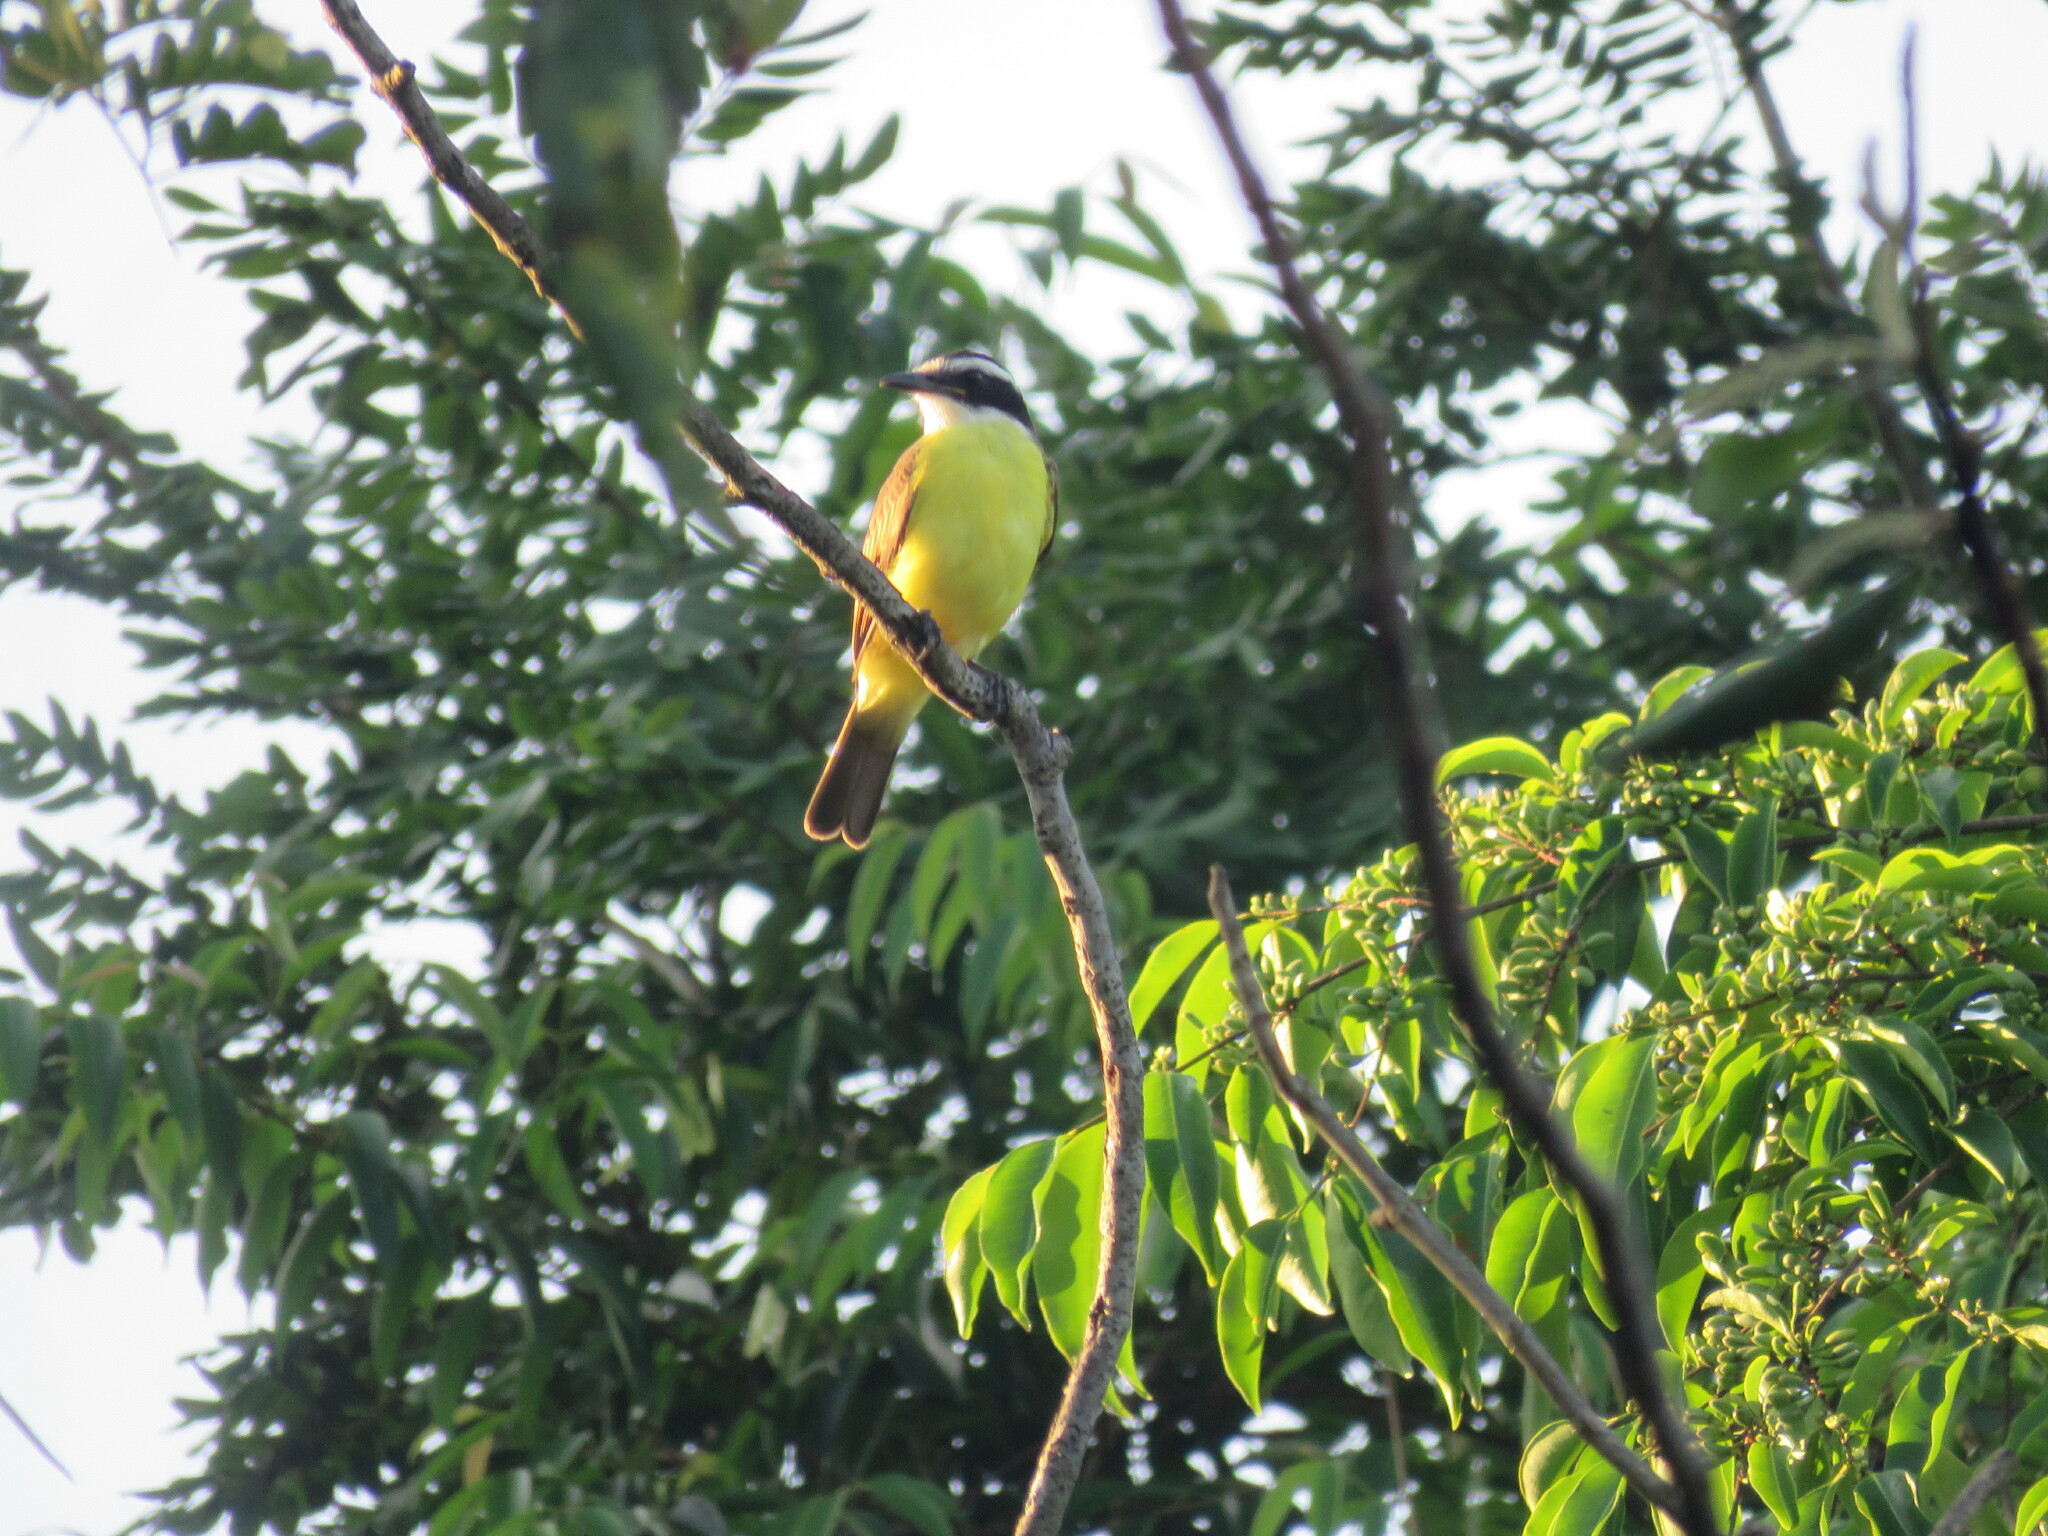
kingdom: Animalia
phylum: Chordata
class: Aves
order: Passeriformes
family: Tyrannidae
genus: Pitangus
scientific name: Pitangus sulphuratus
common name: Great kiskadee
